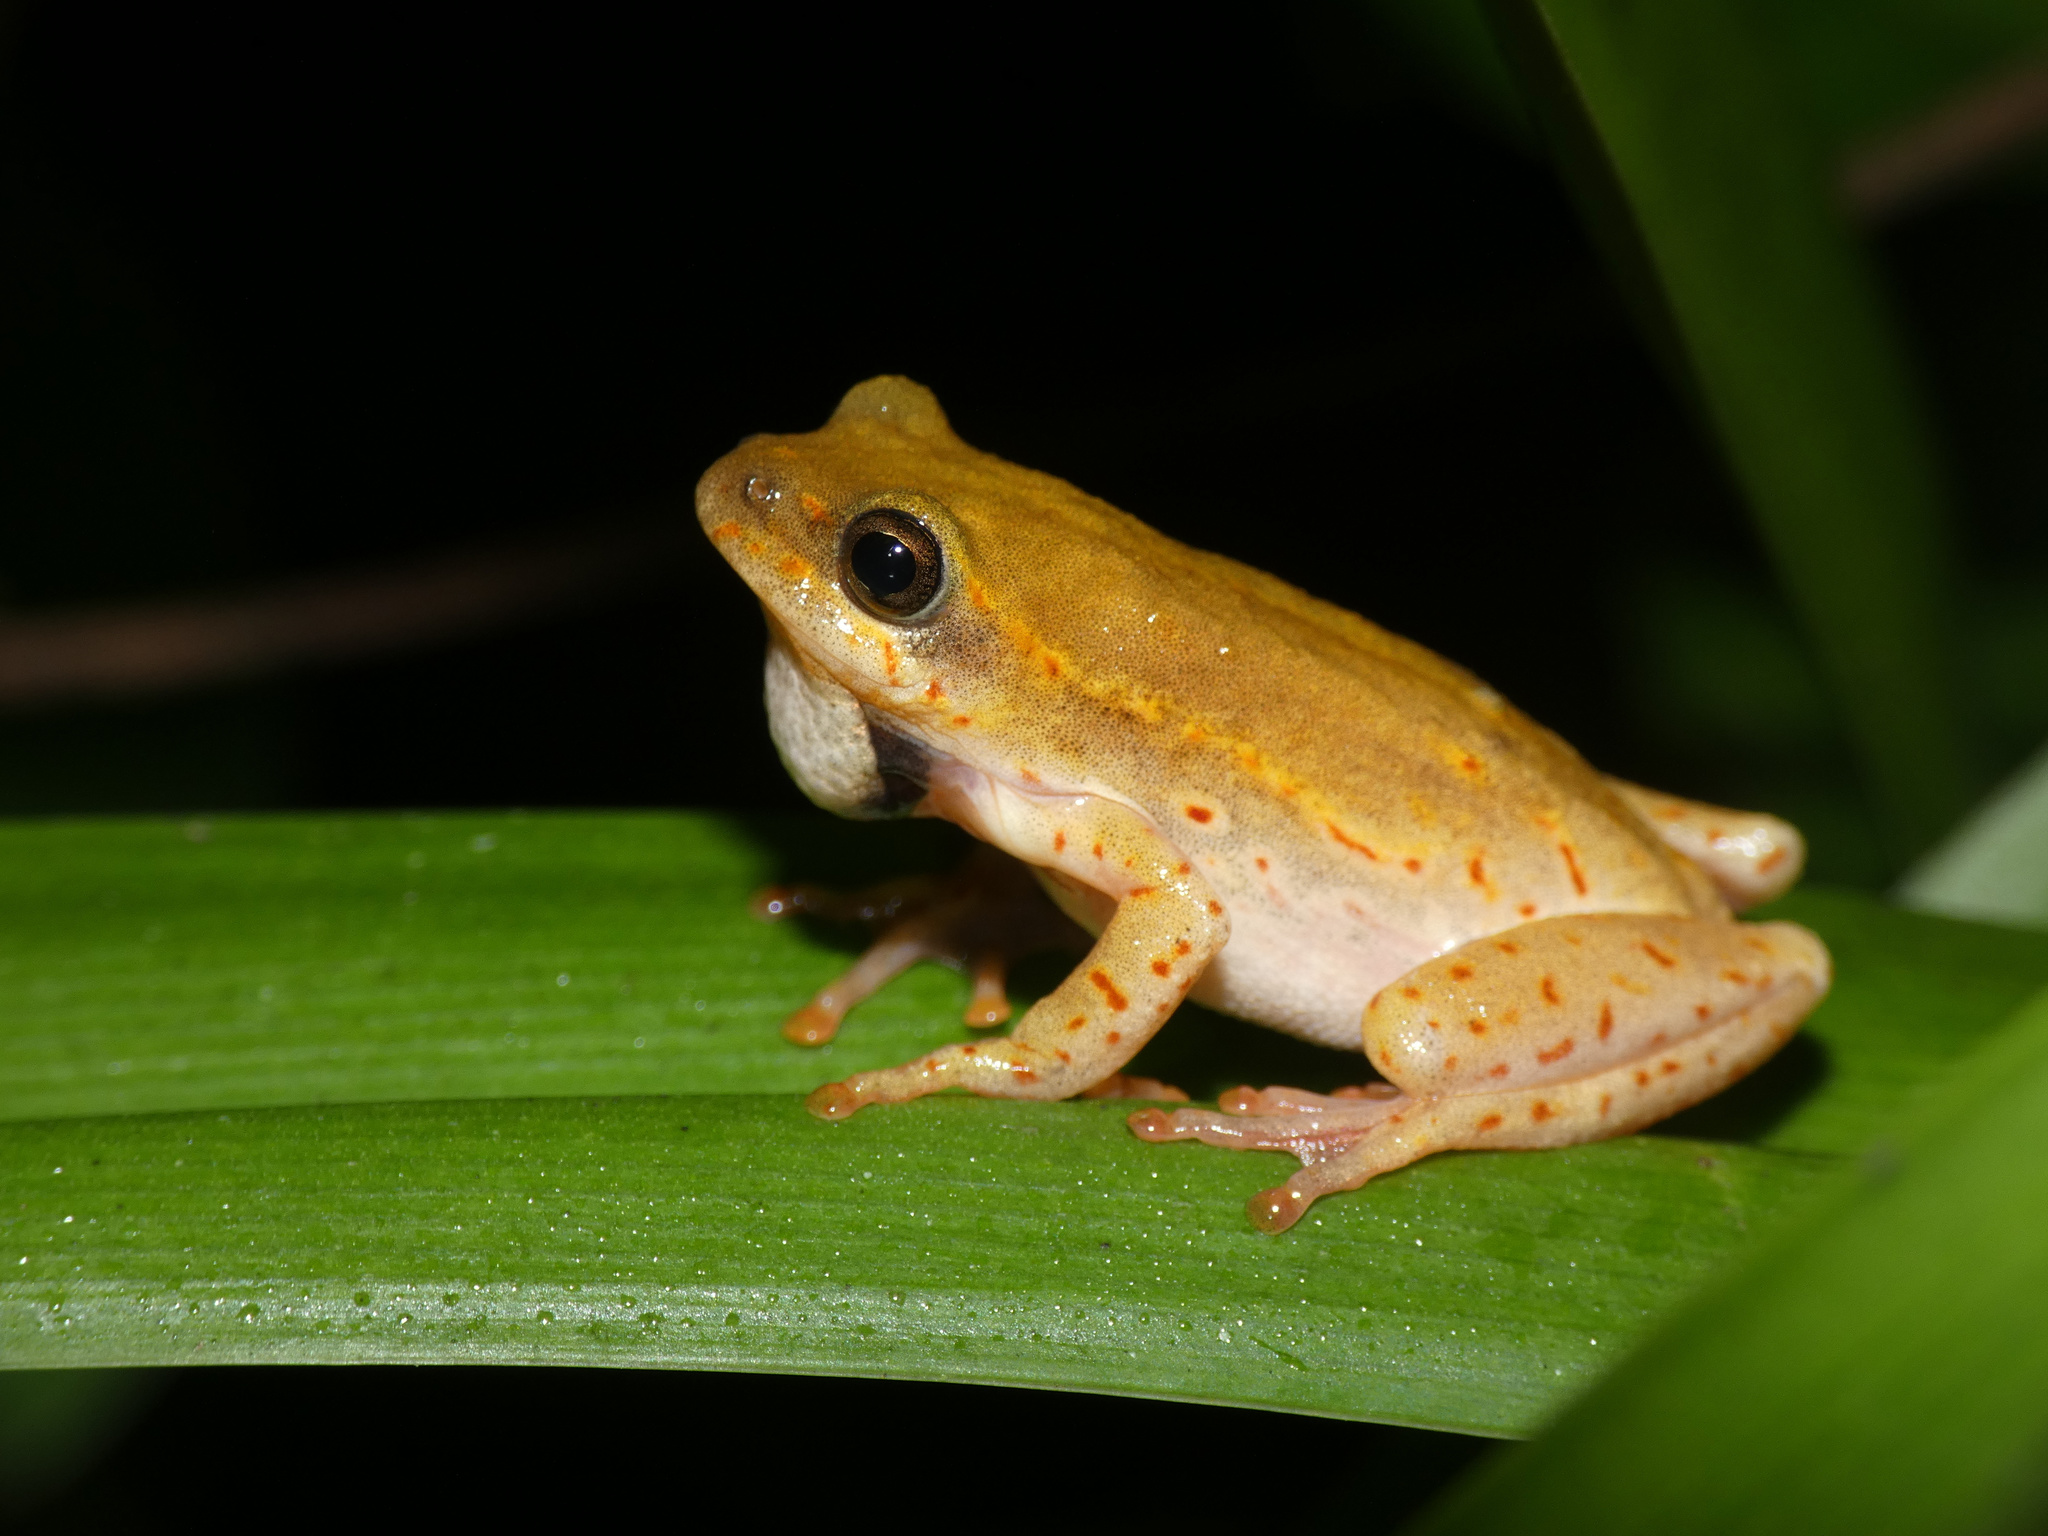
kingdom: Animalia
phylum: Chordata
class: Amphibia
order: Anura
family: Hyperoliidae
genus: Hyperolius
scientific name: Hyperolius marmoratus
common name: Painted reed frog
